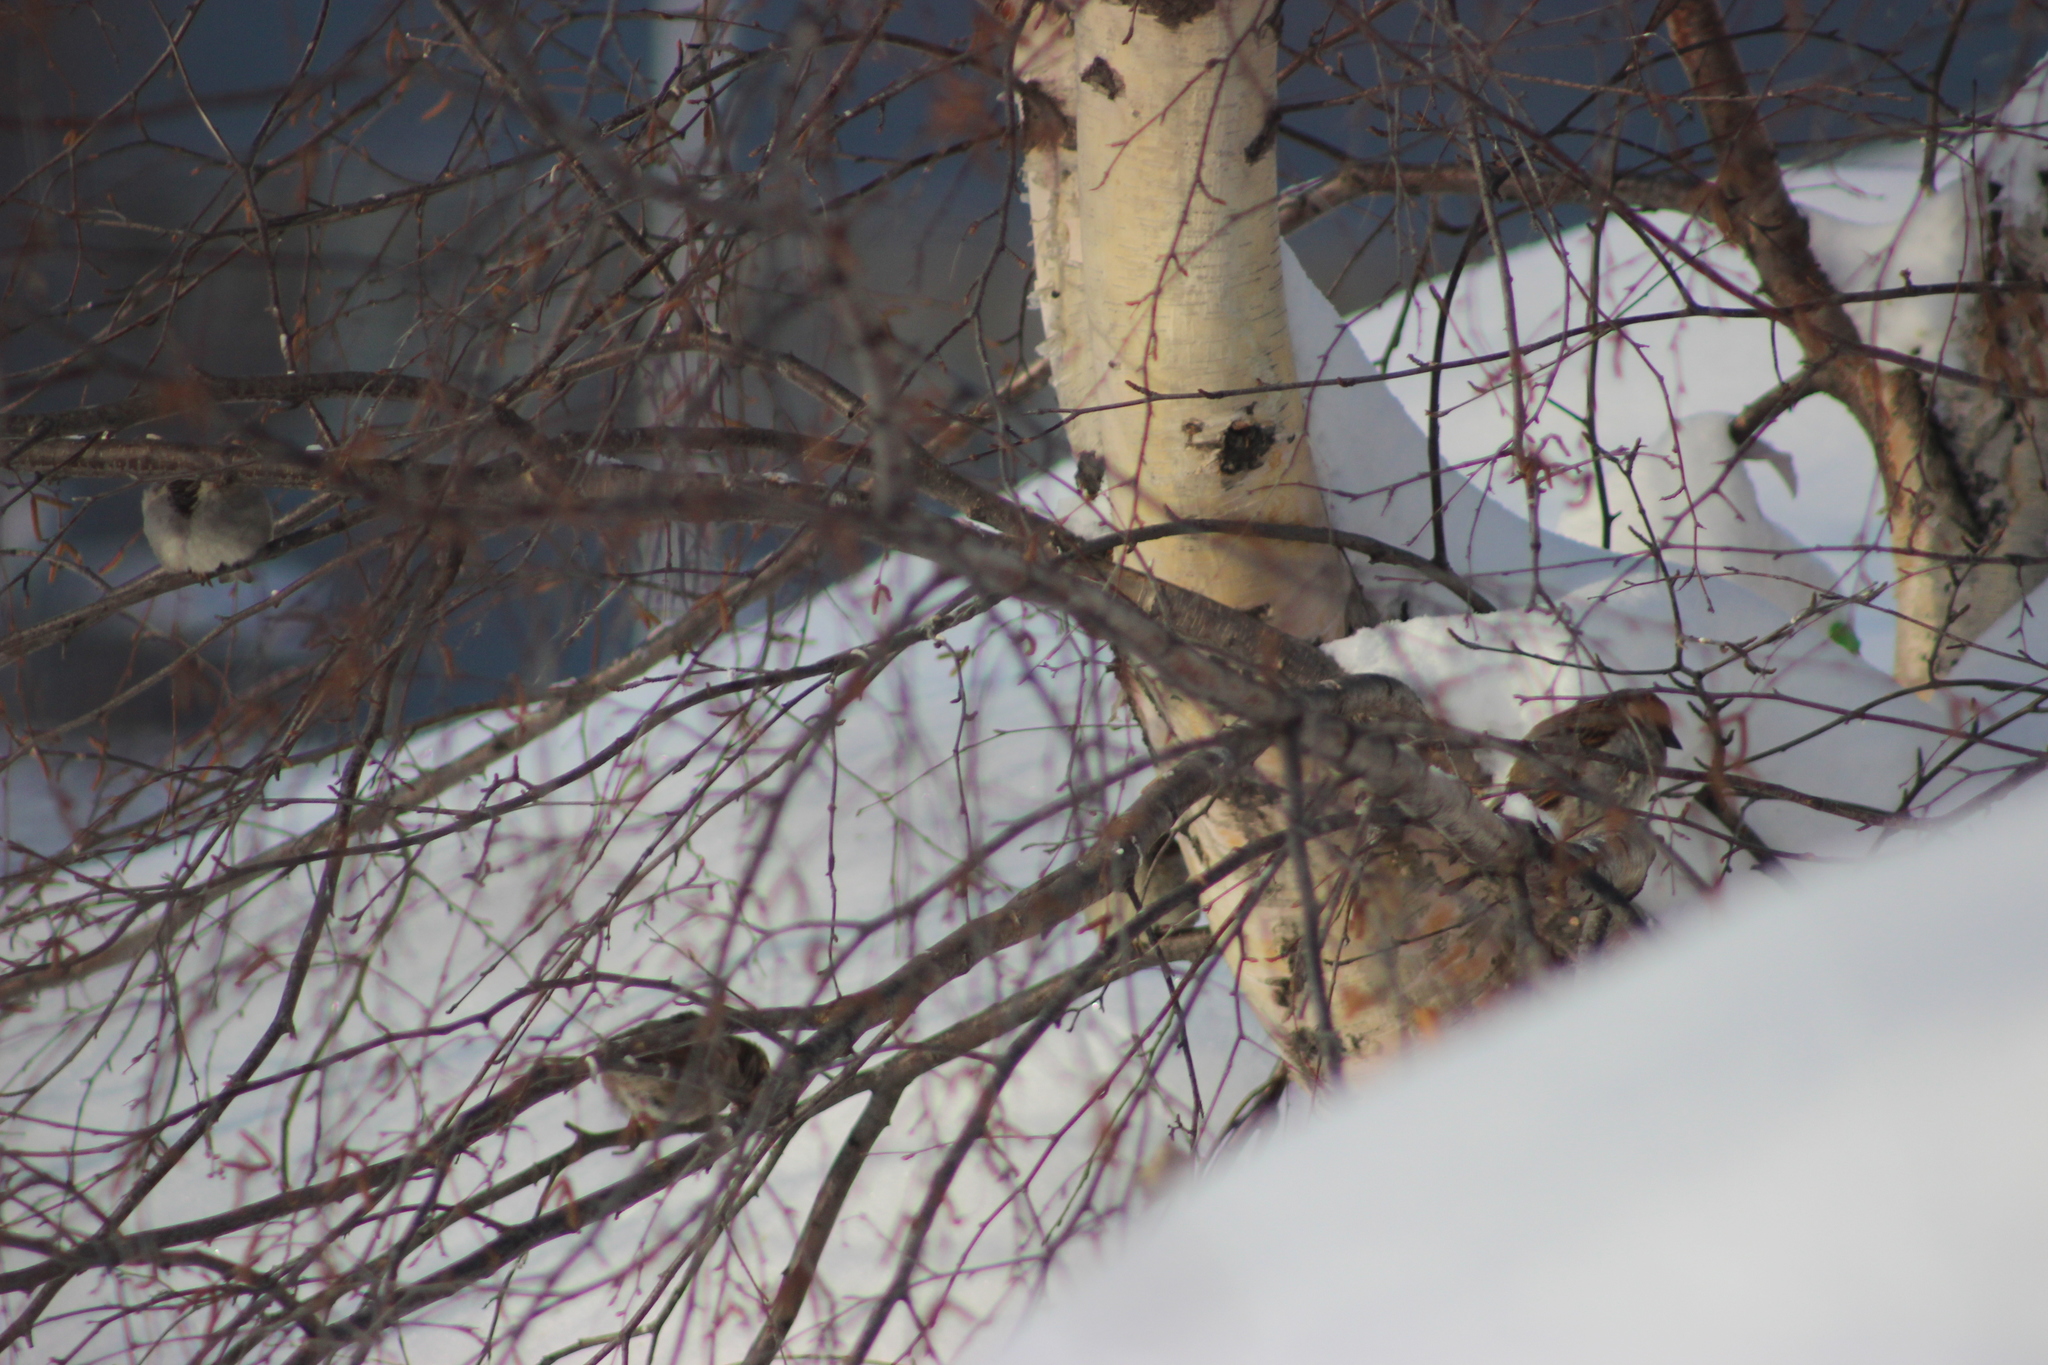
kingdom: Animalia
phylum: Chordata
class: Aves
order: Passeriformes
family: Passeridae
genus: Passer
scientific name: Passer domesticus
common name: House sparrow
